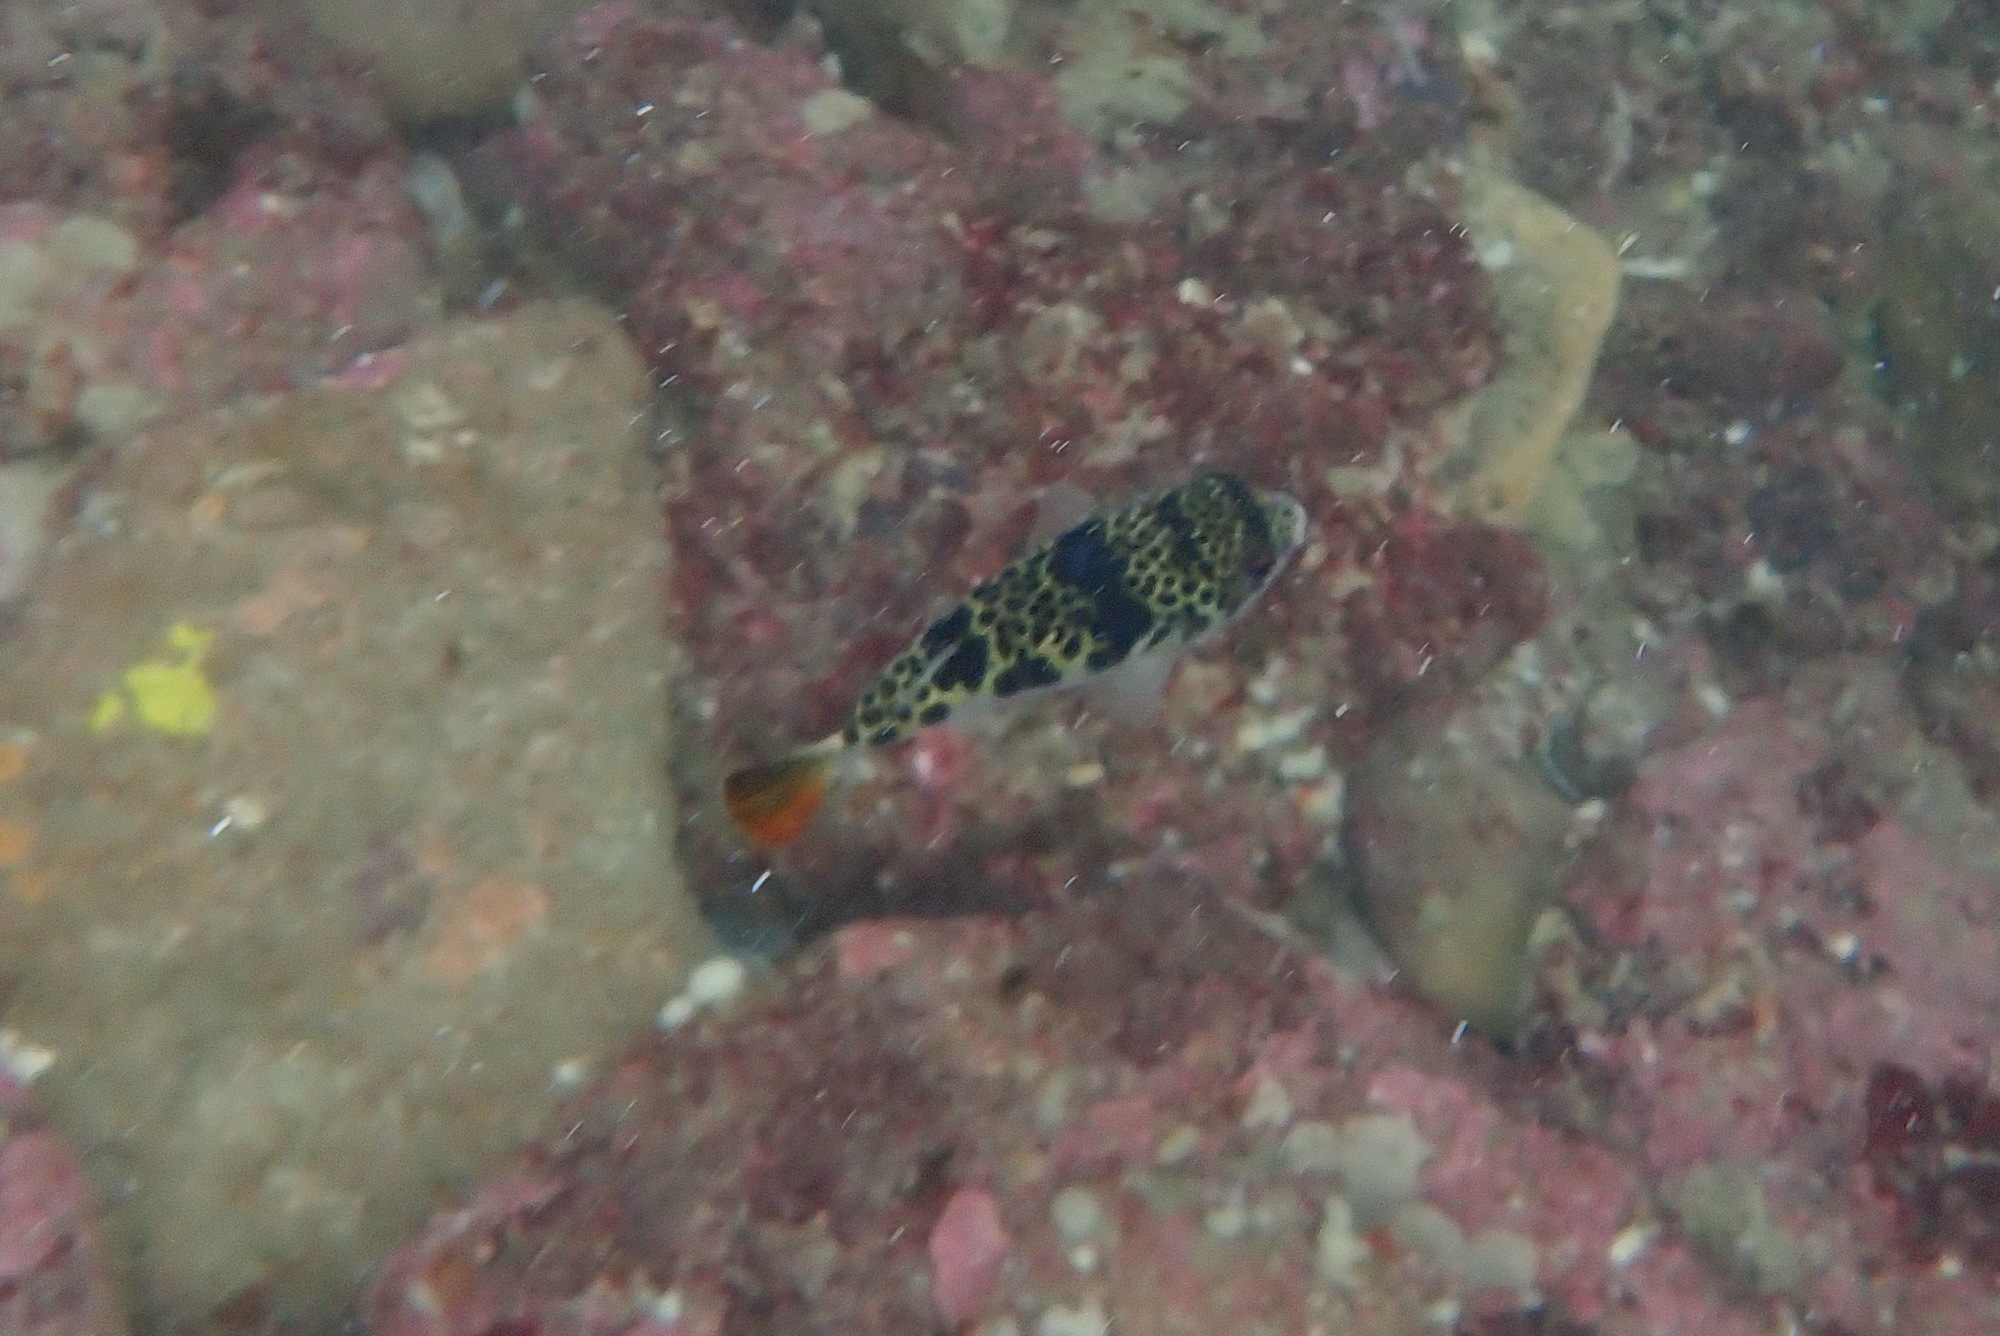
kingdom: Animalia
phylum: Chordata
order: Tetraodontiformes
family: Tetraodontidae
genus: Tetractenos
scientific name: Tetractenos glaber
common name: Smooth toadfish
